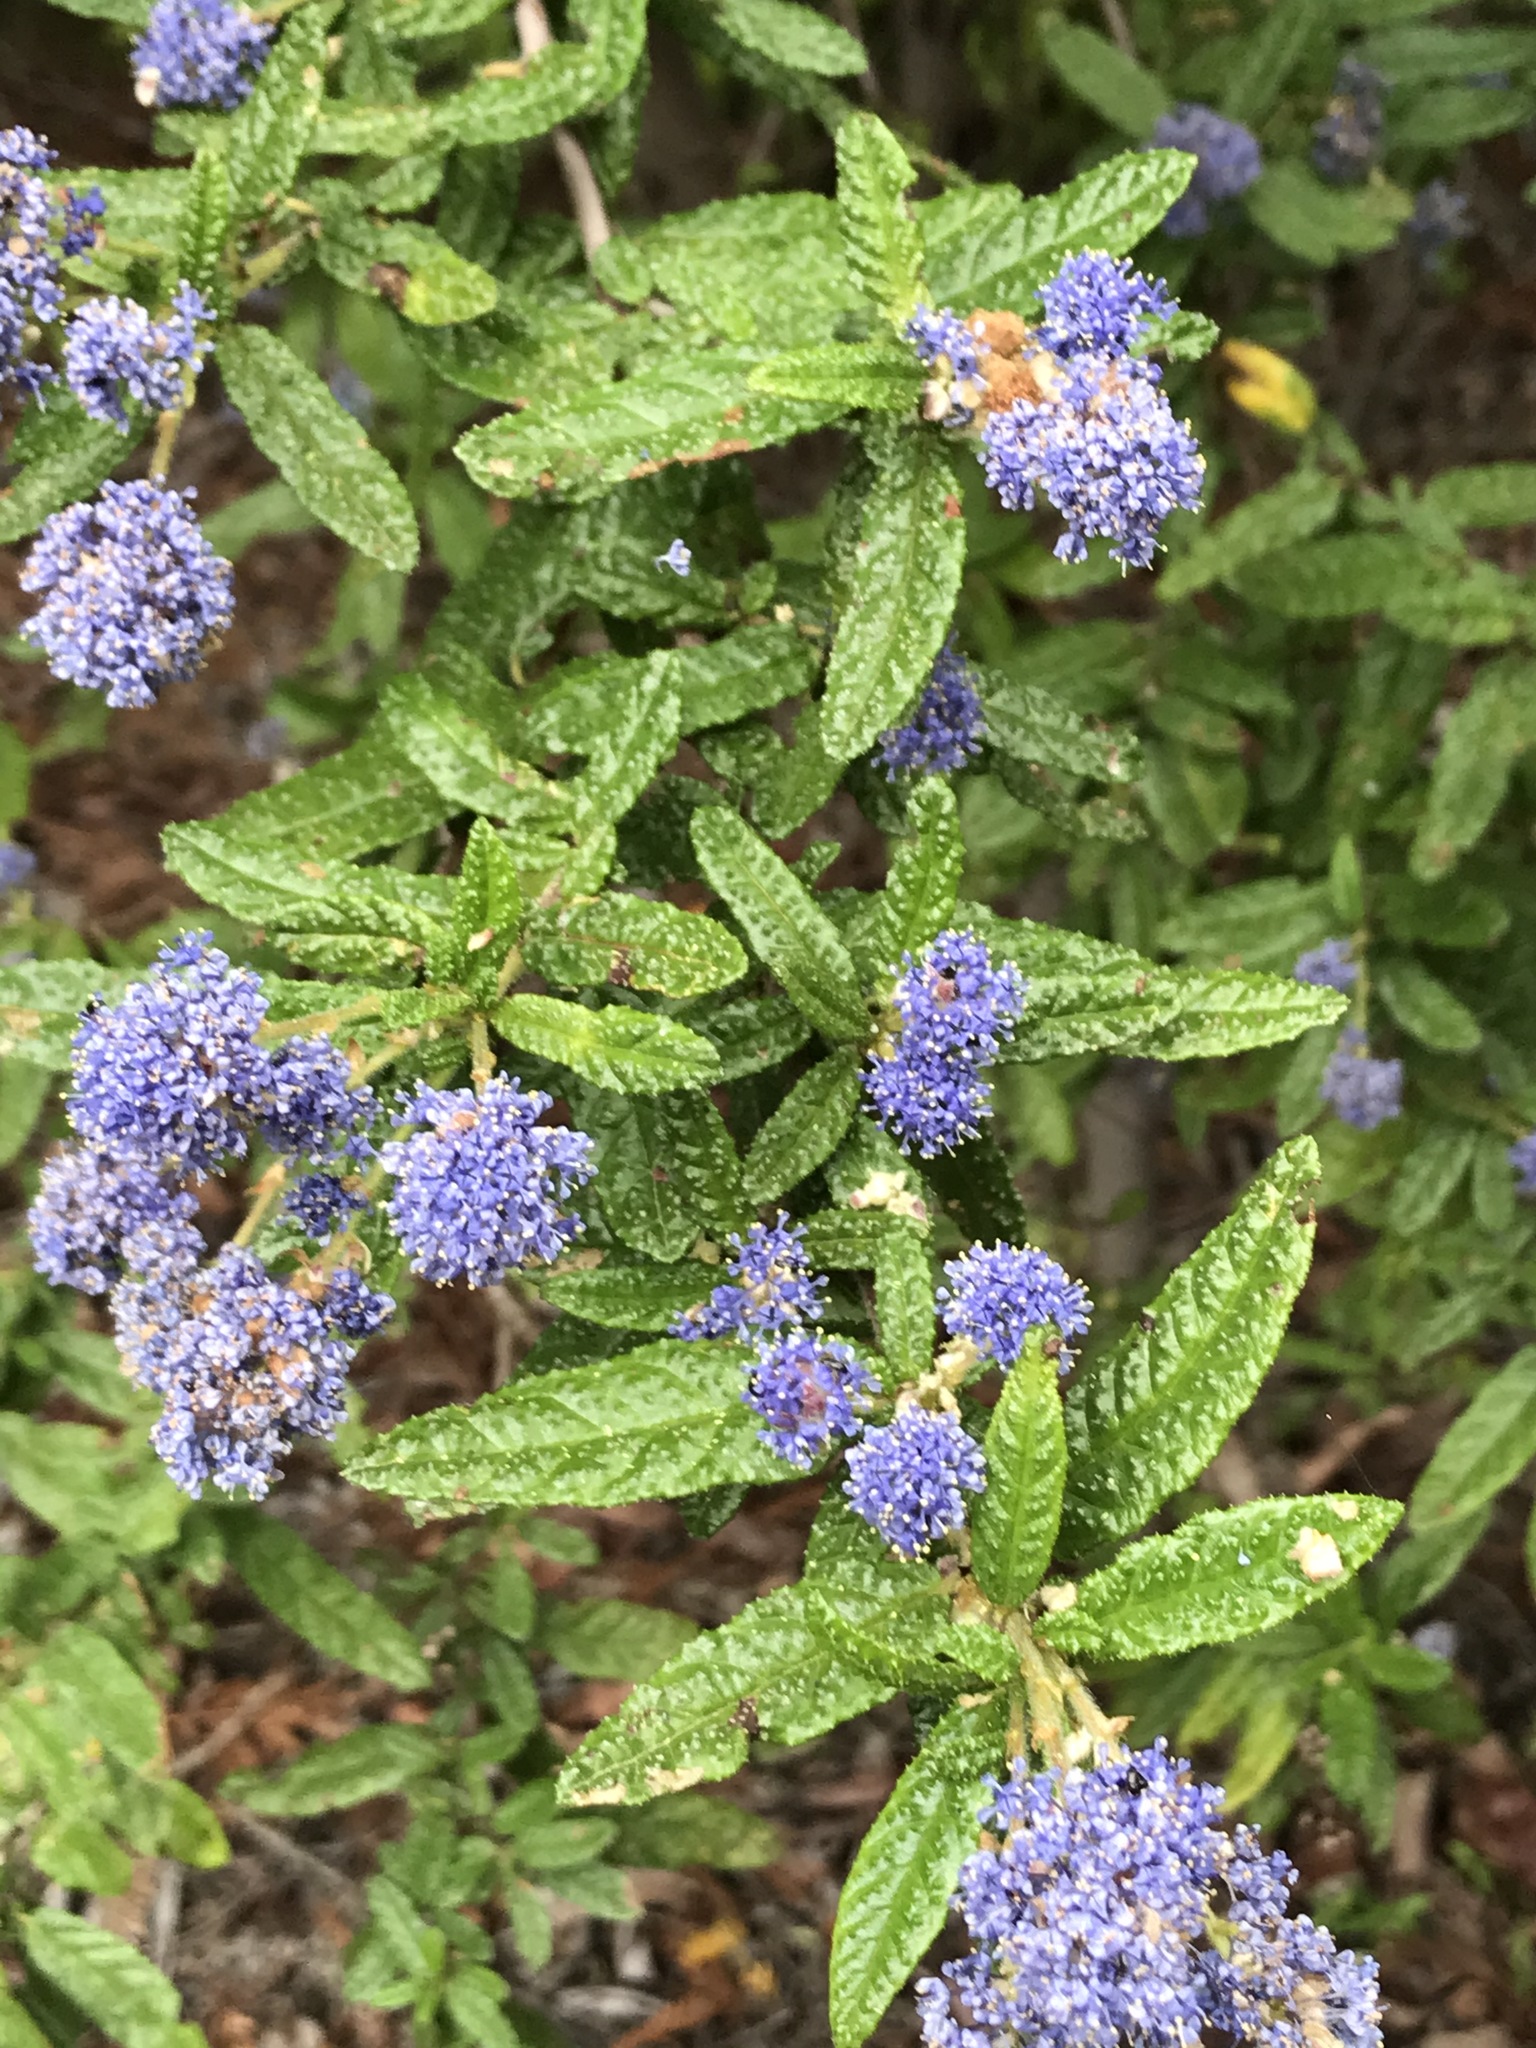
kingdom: Plantae
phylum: Tracheophyta
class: Magnoliopsida
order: Rosales
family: Rhamnaceae
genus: Ceanothus
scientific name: Ceanothus papillosus
